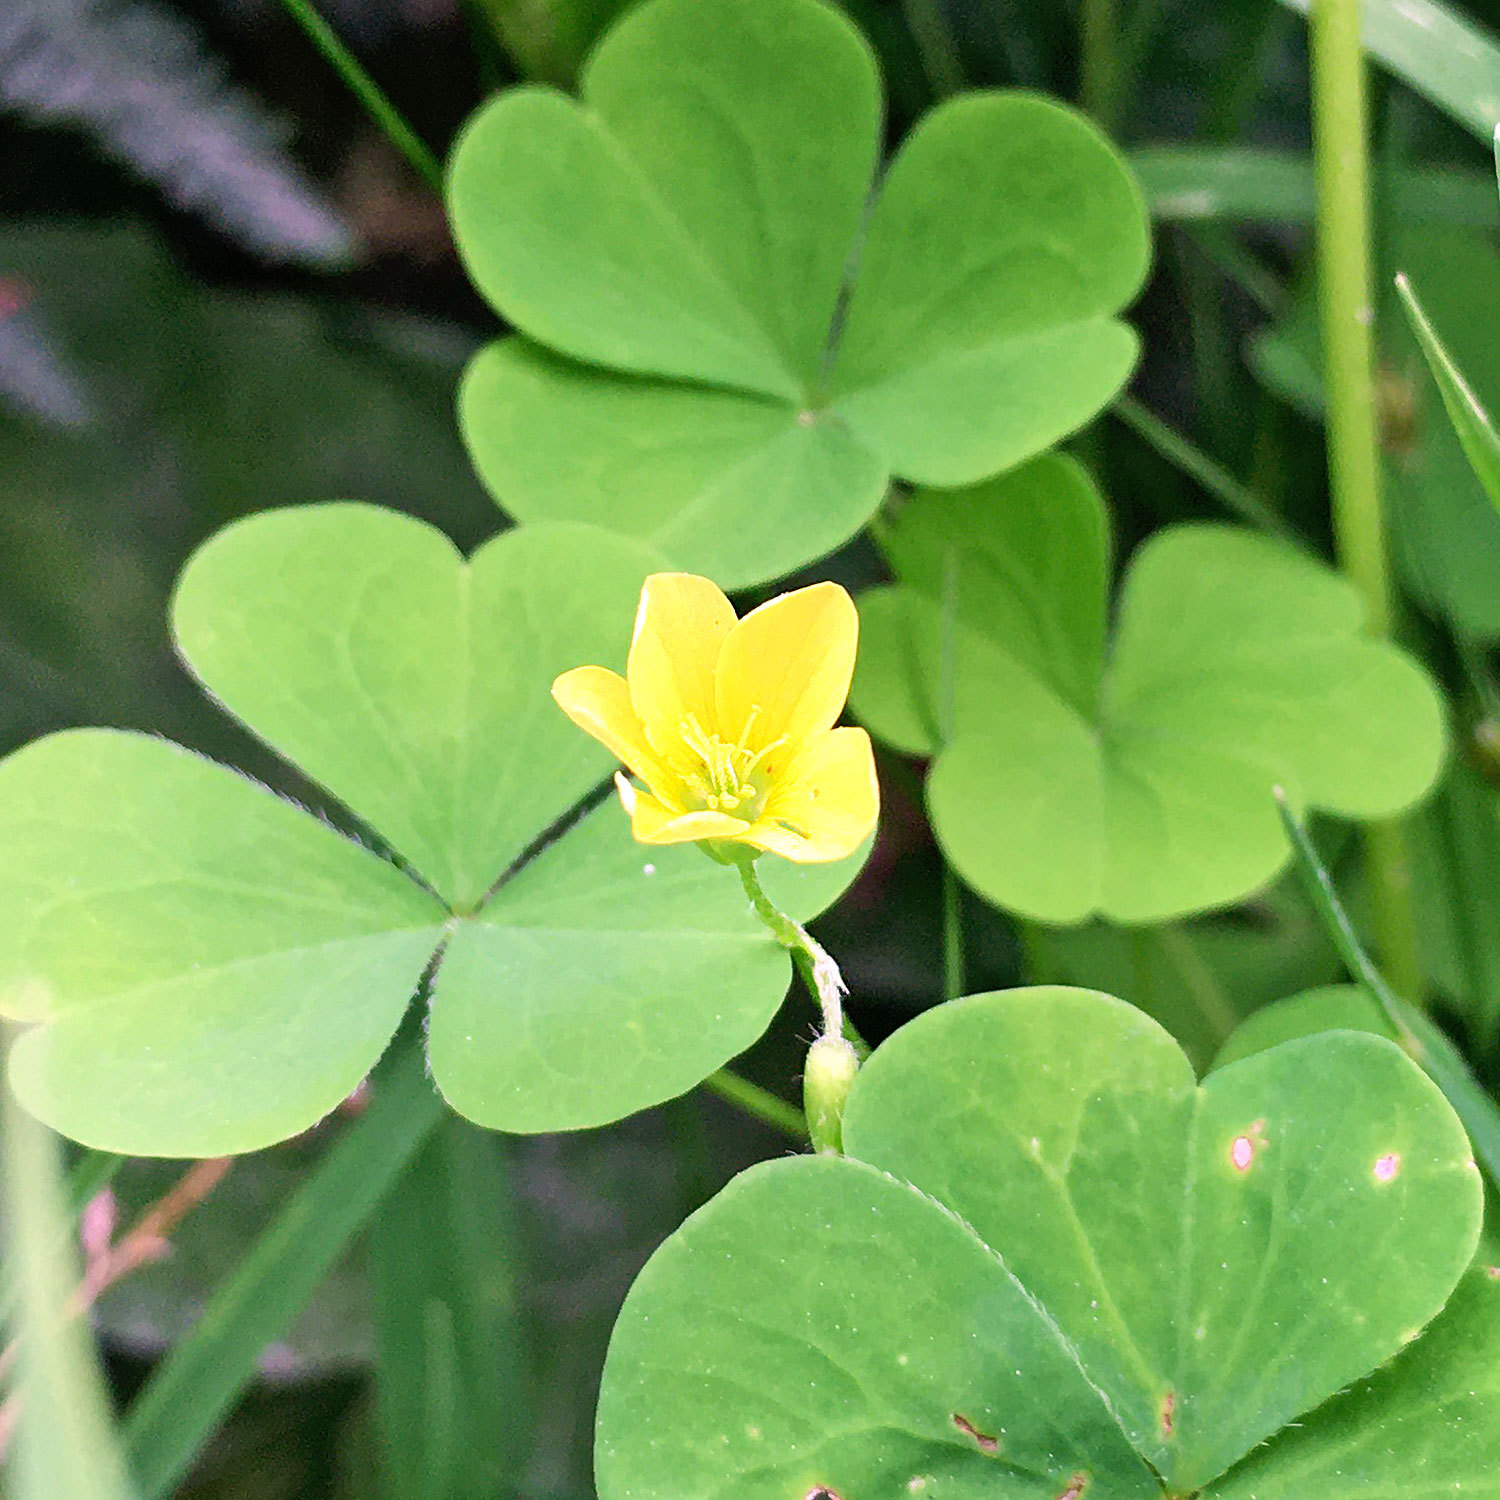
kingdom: Plantae
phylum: Tracheophyta
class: Magnoliopsida
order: Oxalidales
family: Oxalidaceae
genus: Oxalis
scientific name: Oxalis stricta
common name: Upright yellow-sorrel
